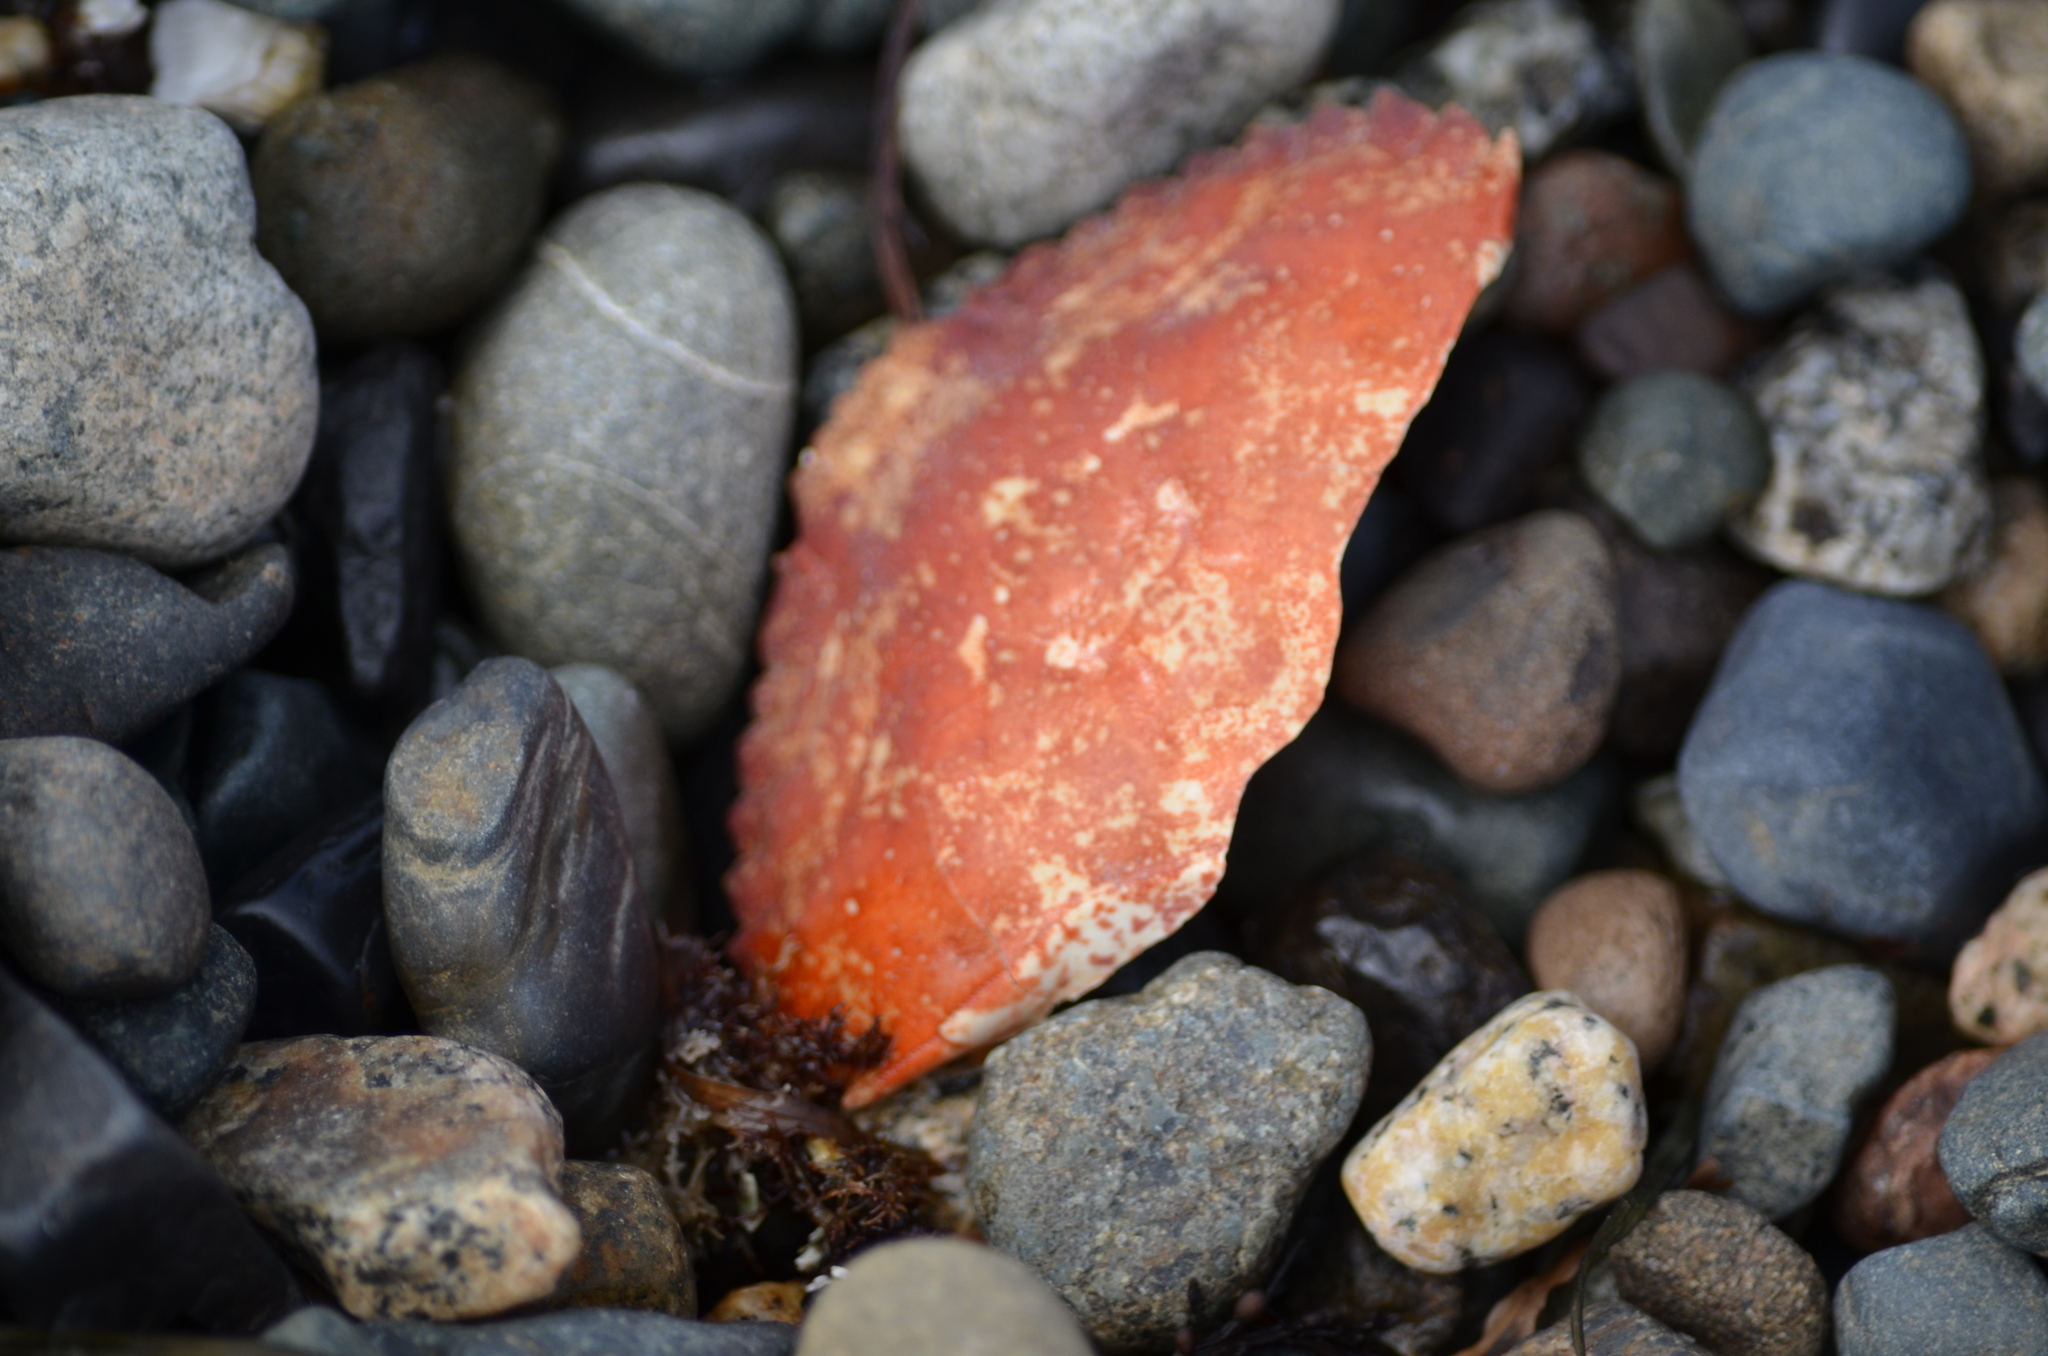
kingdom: Animalia
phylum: Arthropoda
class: Malacostraca
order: Decapoda
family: Cancridae
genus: Cancer
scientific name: Cancer productus
